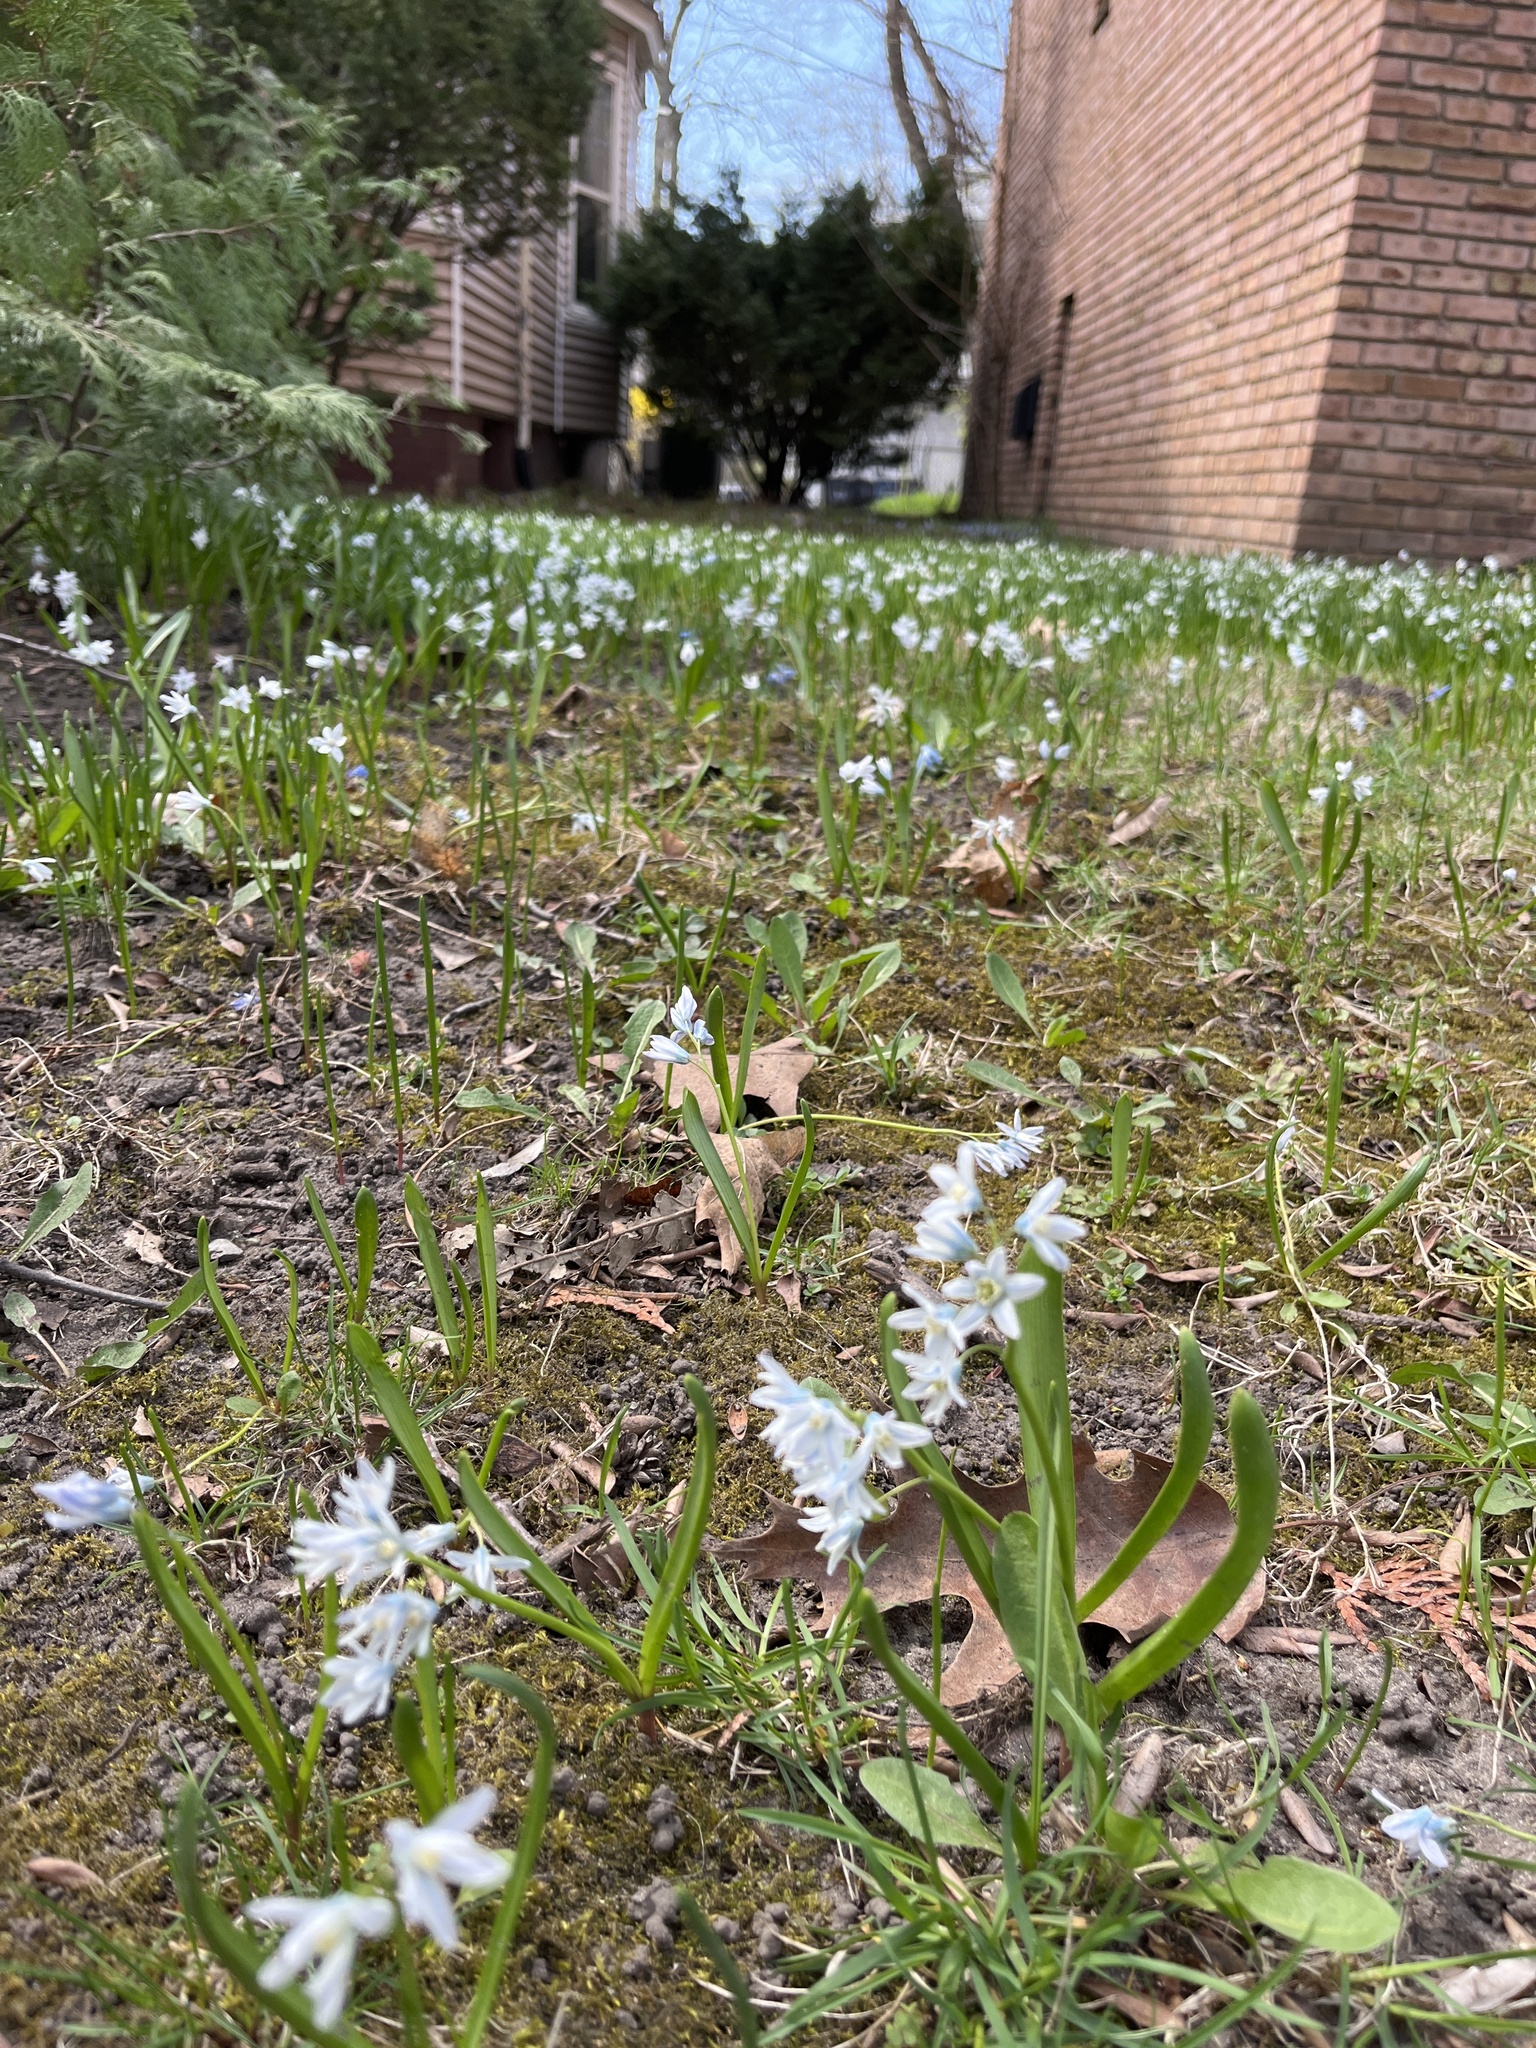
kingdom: Plantae
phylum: Tracheophyta
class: Liliopsida
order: Asparagales
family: Asparagaceae
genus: Puschkinia
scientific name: Puschkinia scilloides
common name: Striped squill
